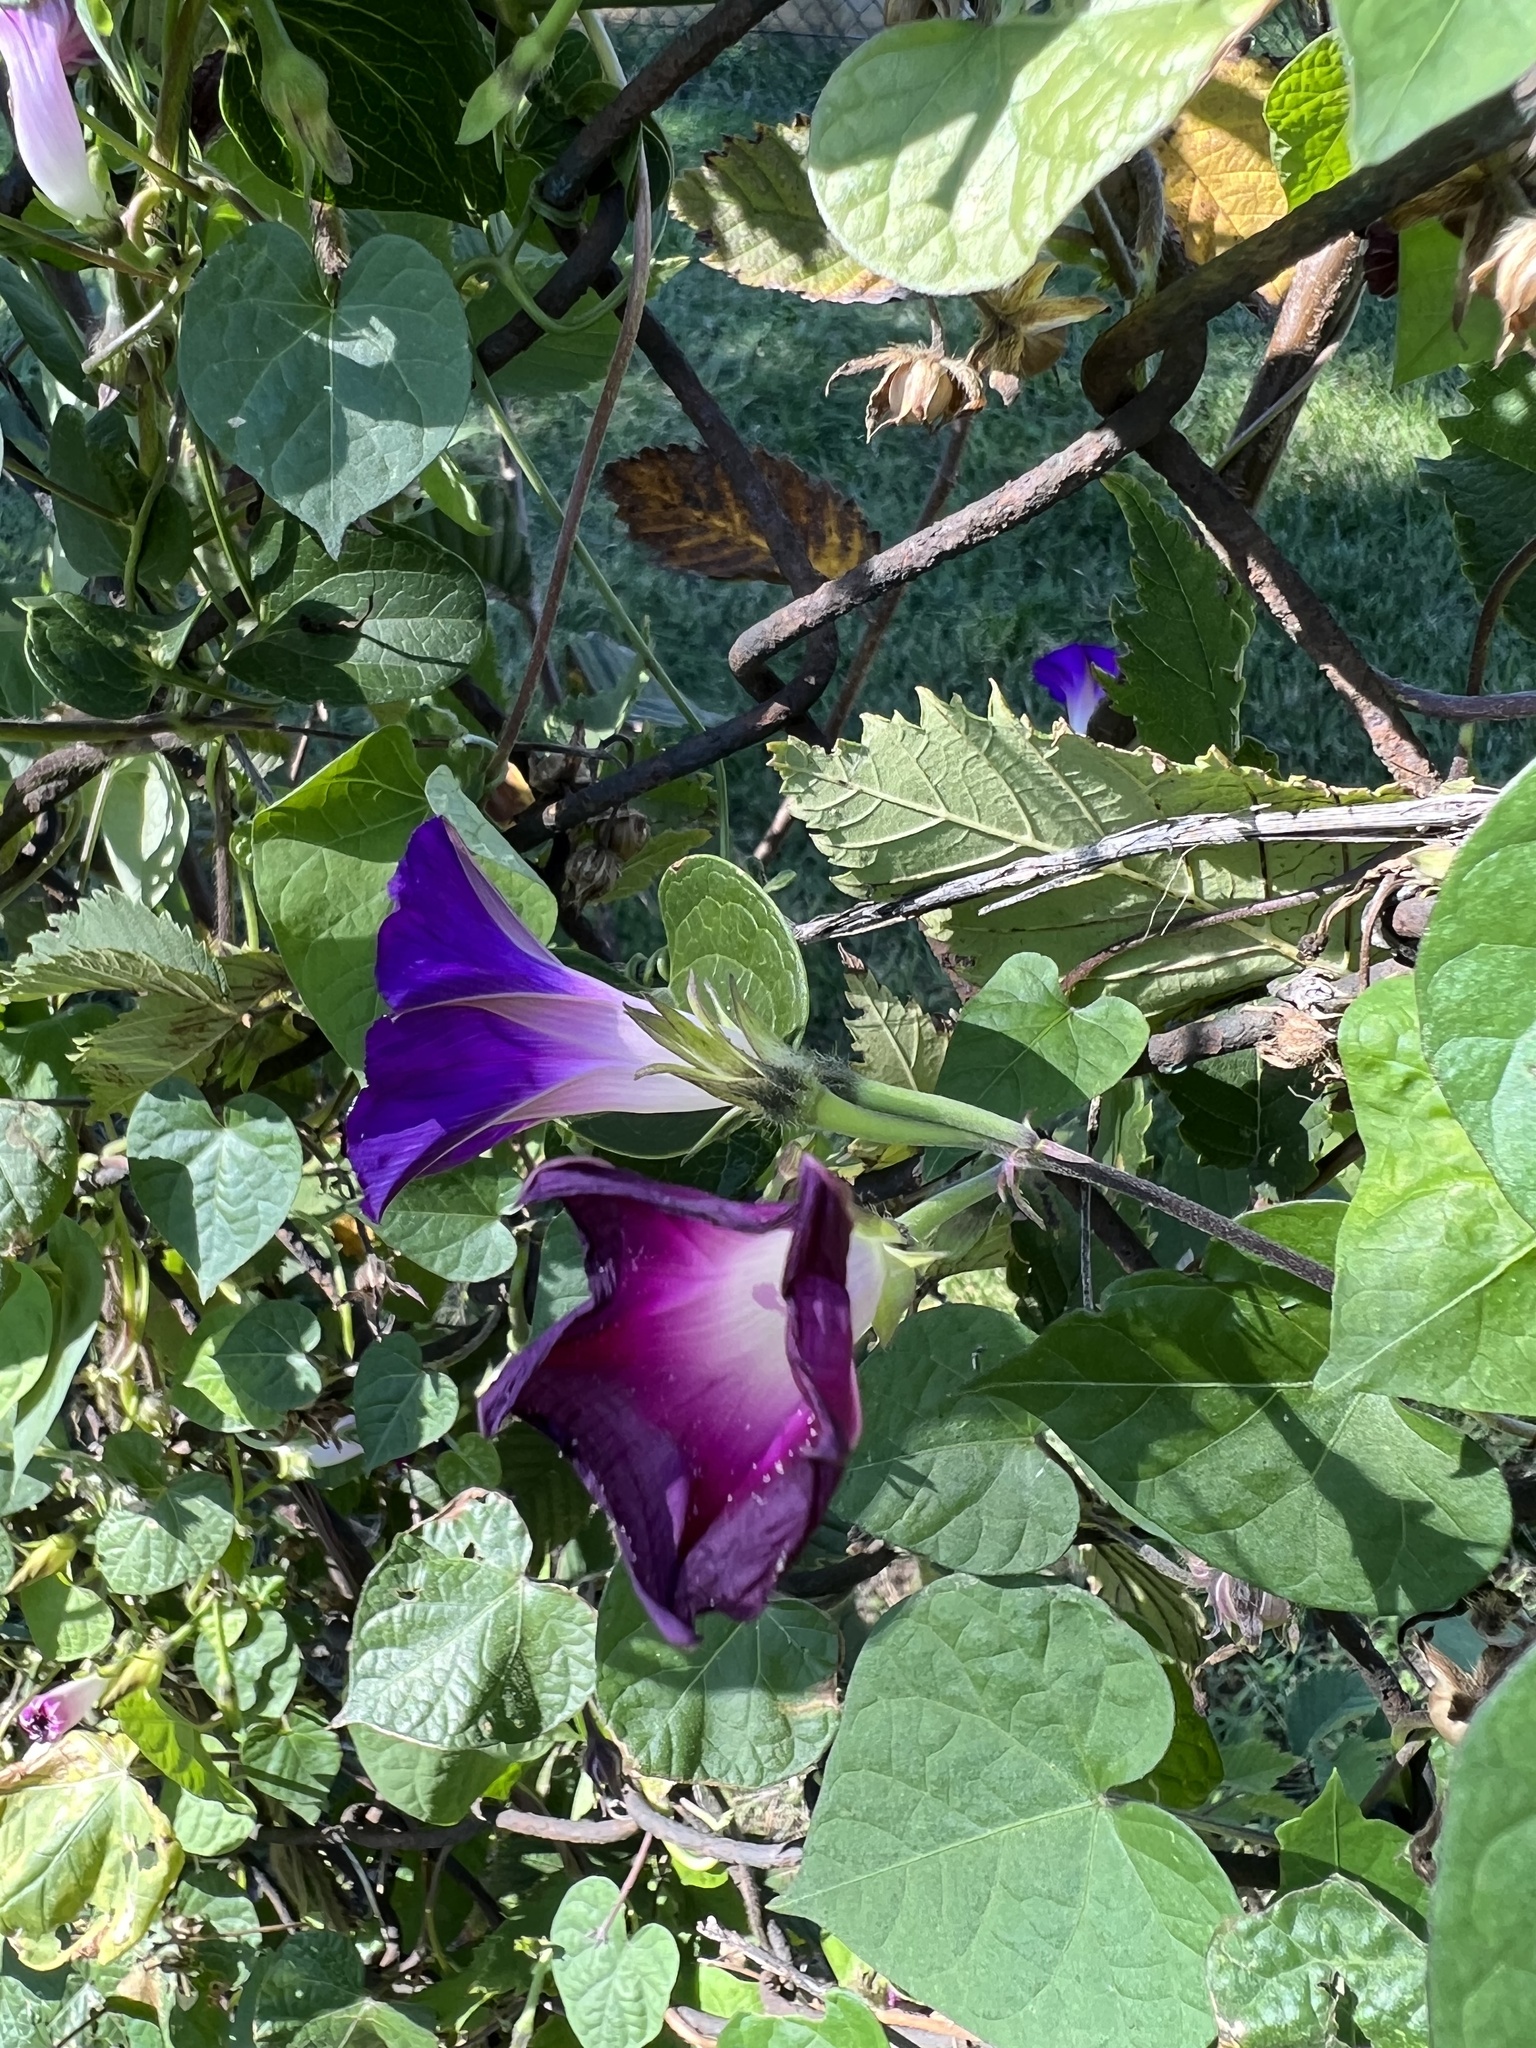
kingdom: Plantae
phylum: Tracheophyta
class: Magnoliopsida
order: Solanales
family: Convolvulaceae
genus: Ipomoea
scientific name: Ipomoea purpurea
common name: Common morning-glory
